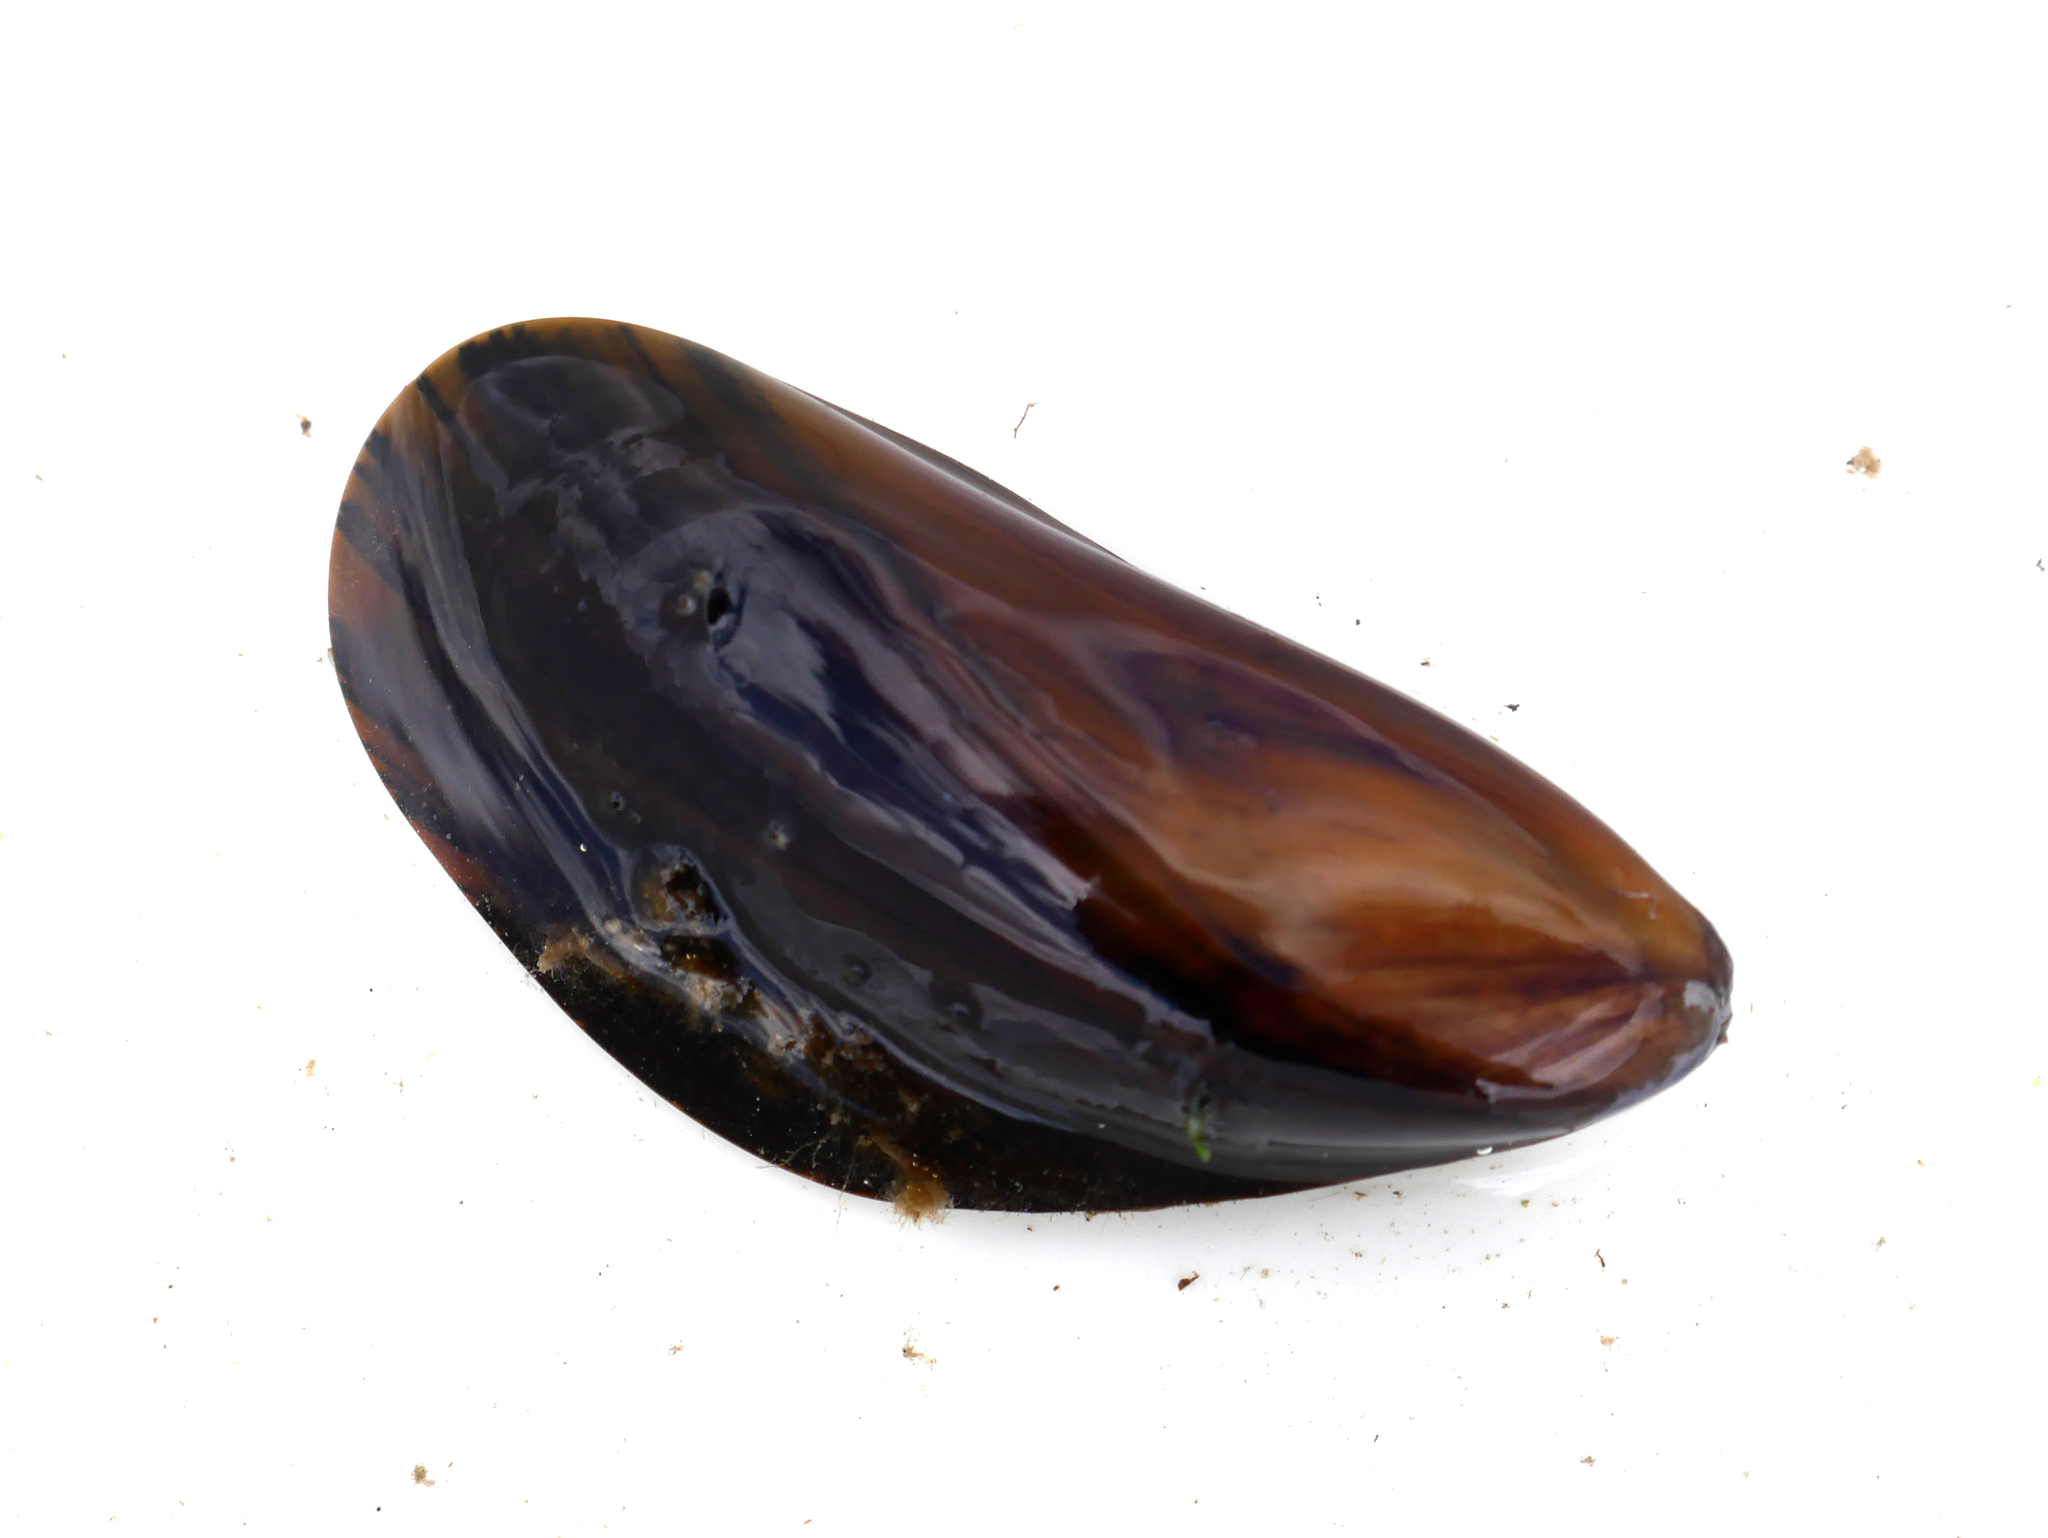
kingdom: Animalia
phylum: Mollusca
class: Bivalvia
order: Mytilida
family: Mytilidae
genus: Mytilus
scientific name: Mytilus edulis
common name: Blue mussel
